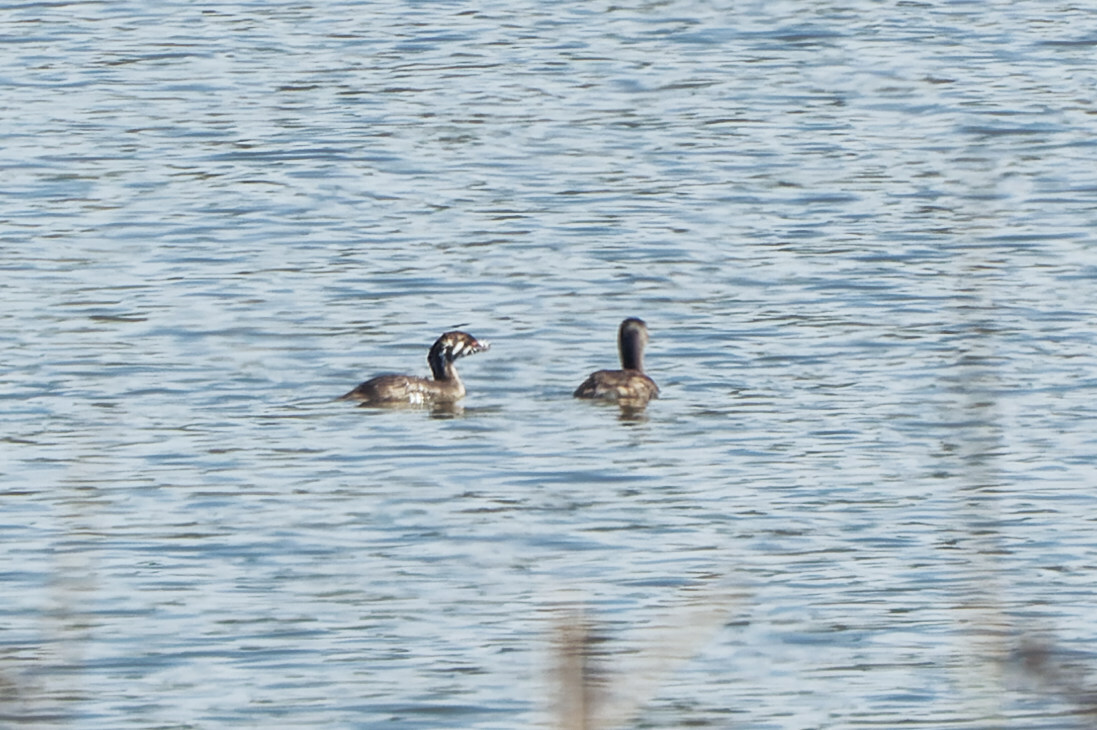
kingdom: Animalia
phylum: Chordata
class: Aves
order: Podicipediformes
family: Podicipedidae
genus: Podilymbus
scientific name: Podilymbus podiceps
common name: Pied-billed grebe
